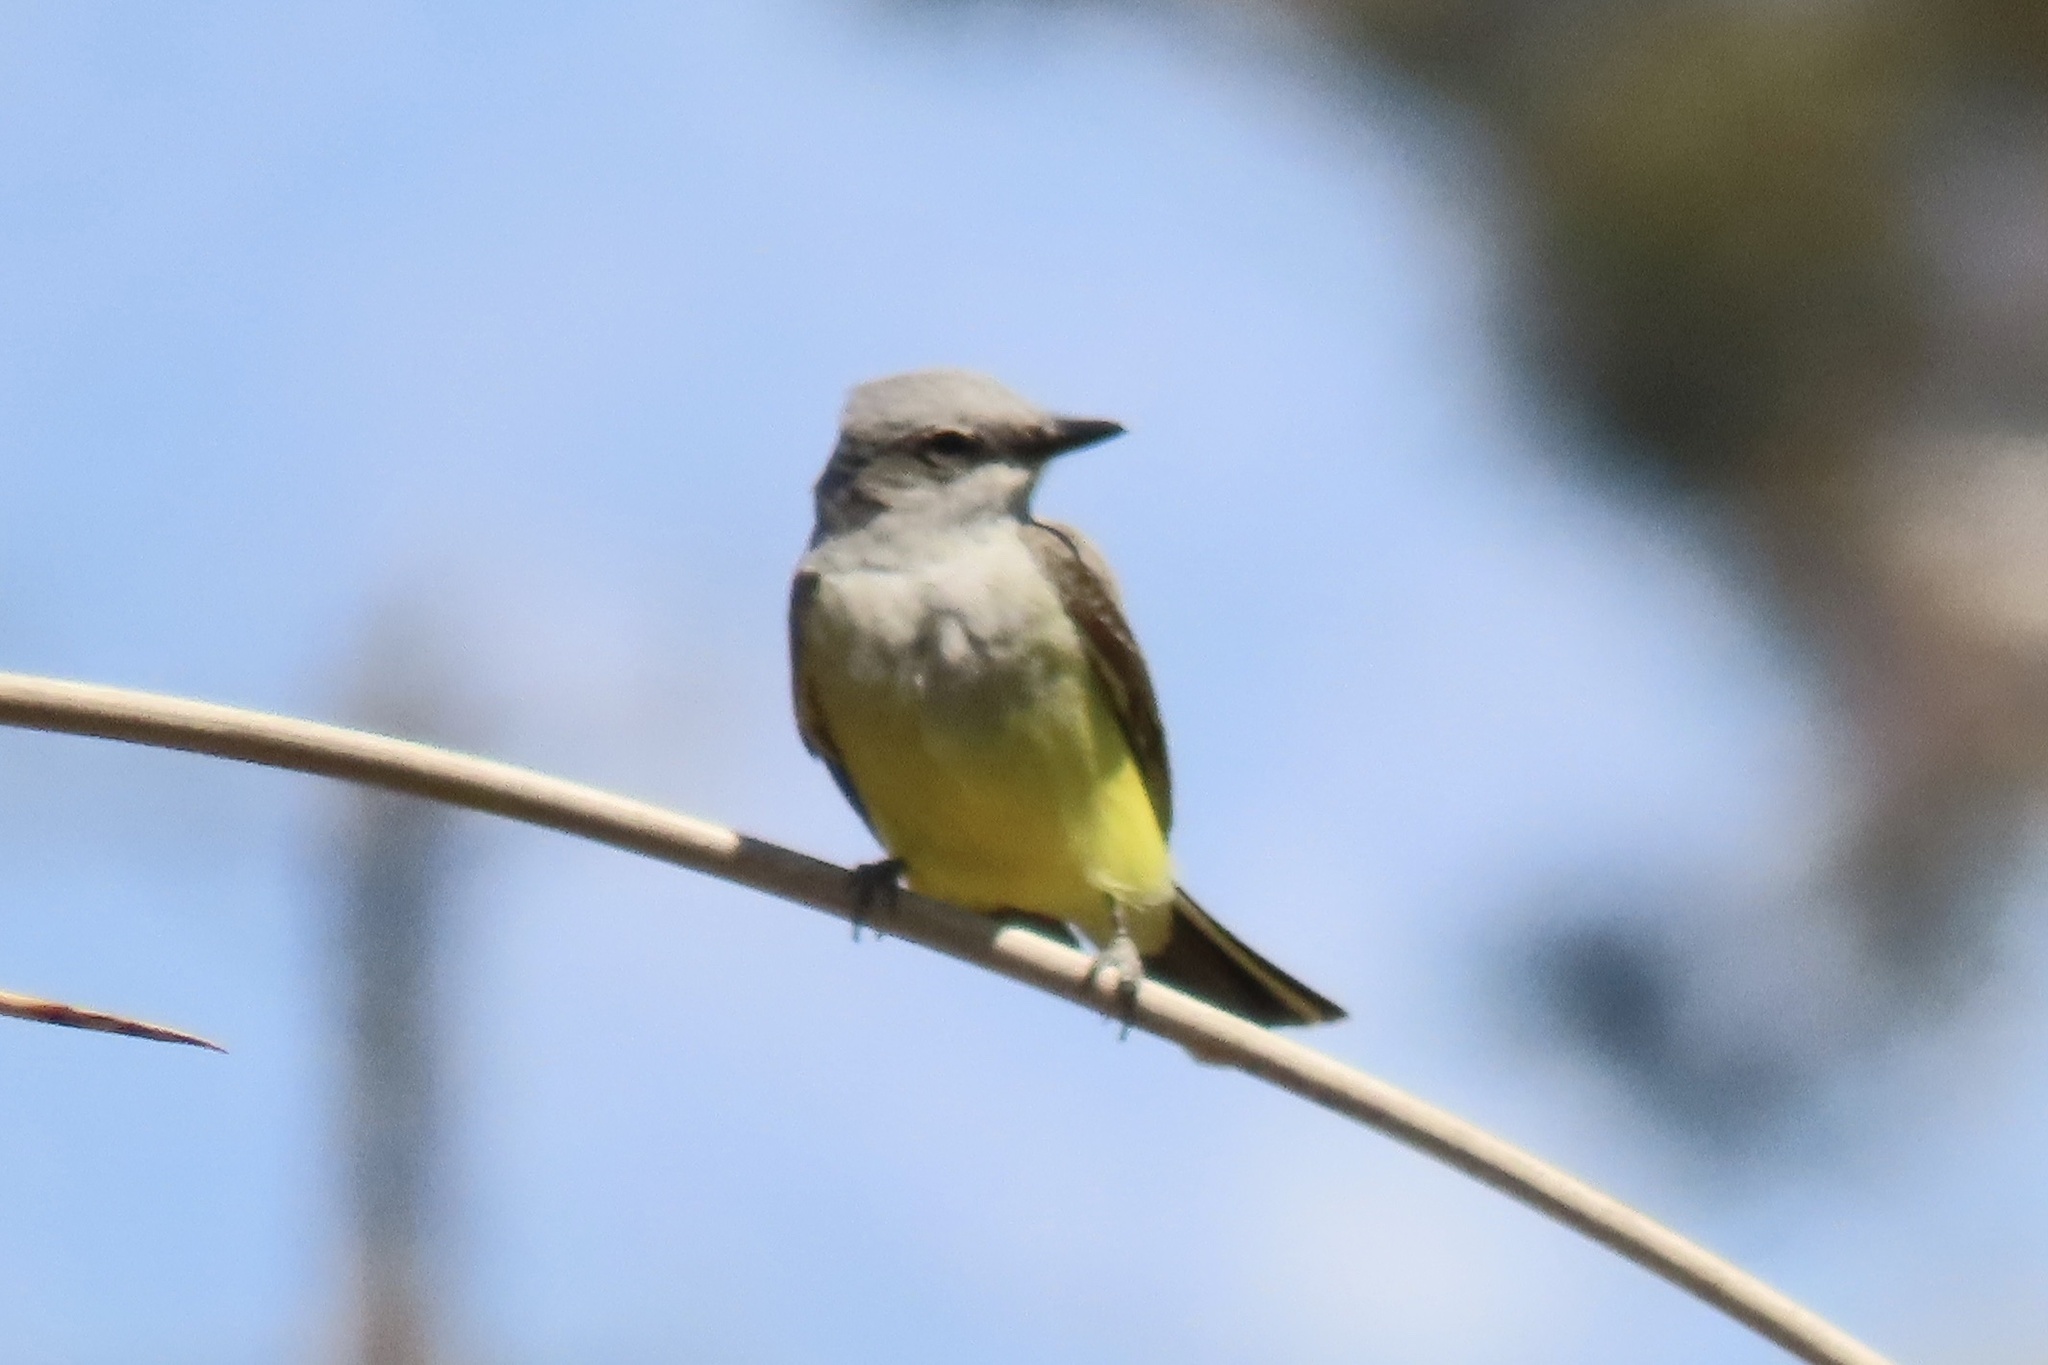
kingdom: Animalia
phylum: Chordata
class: Aves
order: Passeriformes
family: Tyrannidae
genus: Tyrannus
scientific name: Tyrannus verticalis
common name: Western kingbird
